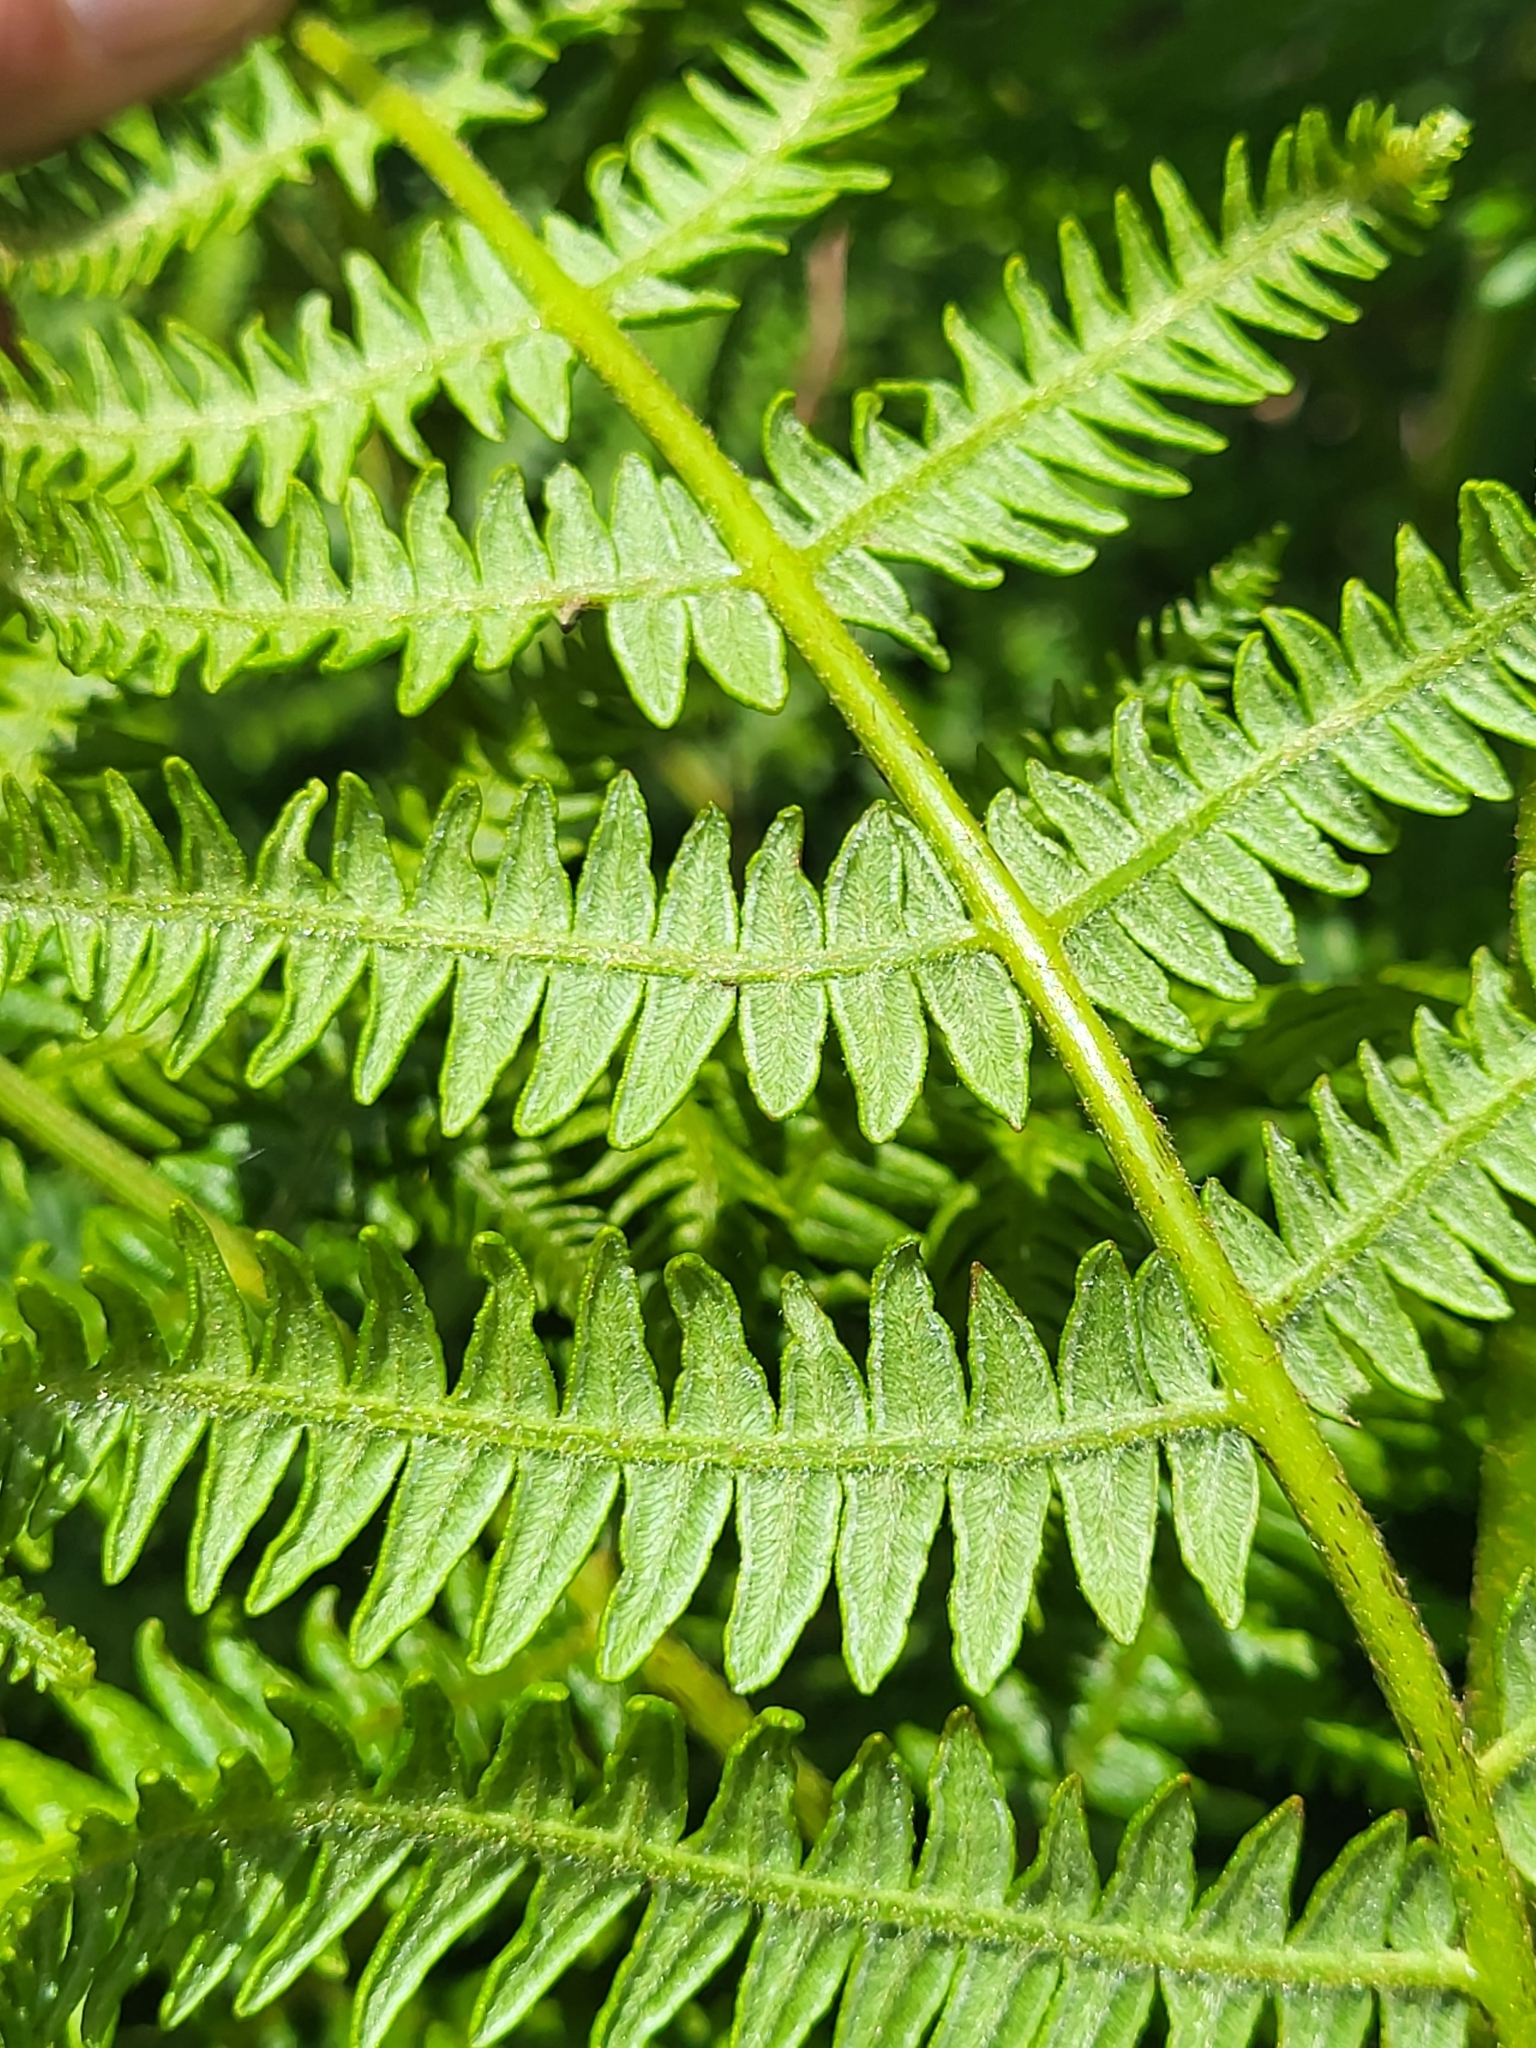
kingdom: Plantae
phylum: Tracheophyta
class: Polypodiopsida
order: Polypodiales
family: Dennstaedtiaceae
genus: Pteridium
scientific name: Pteridium aquilinum
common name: Bracken
